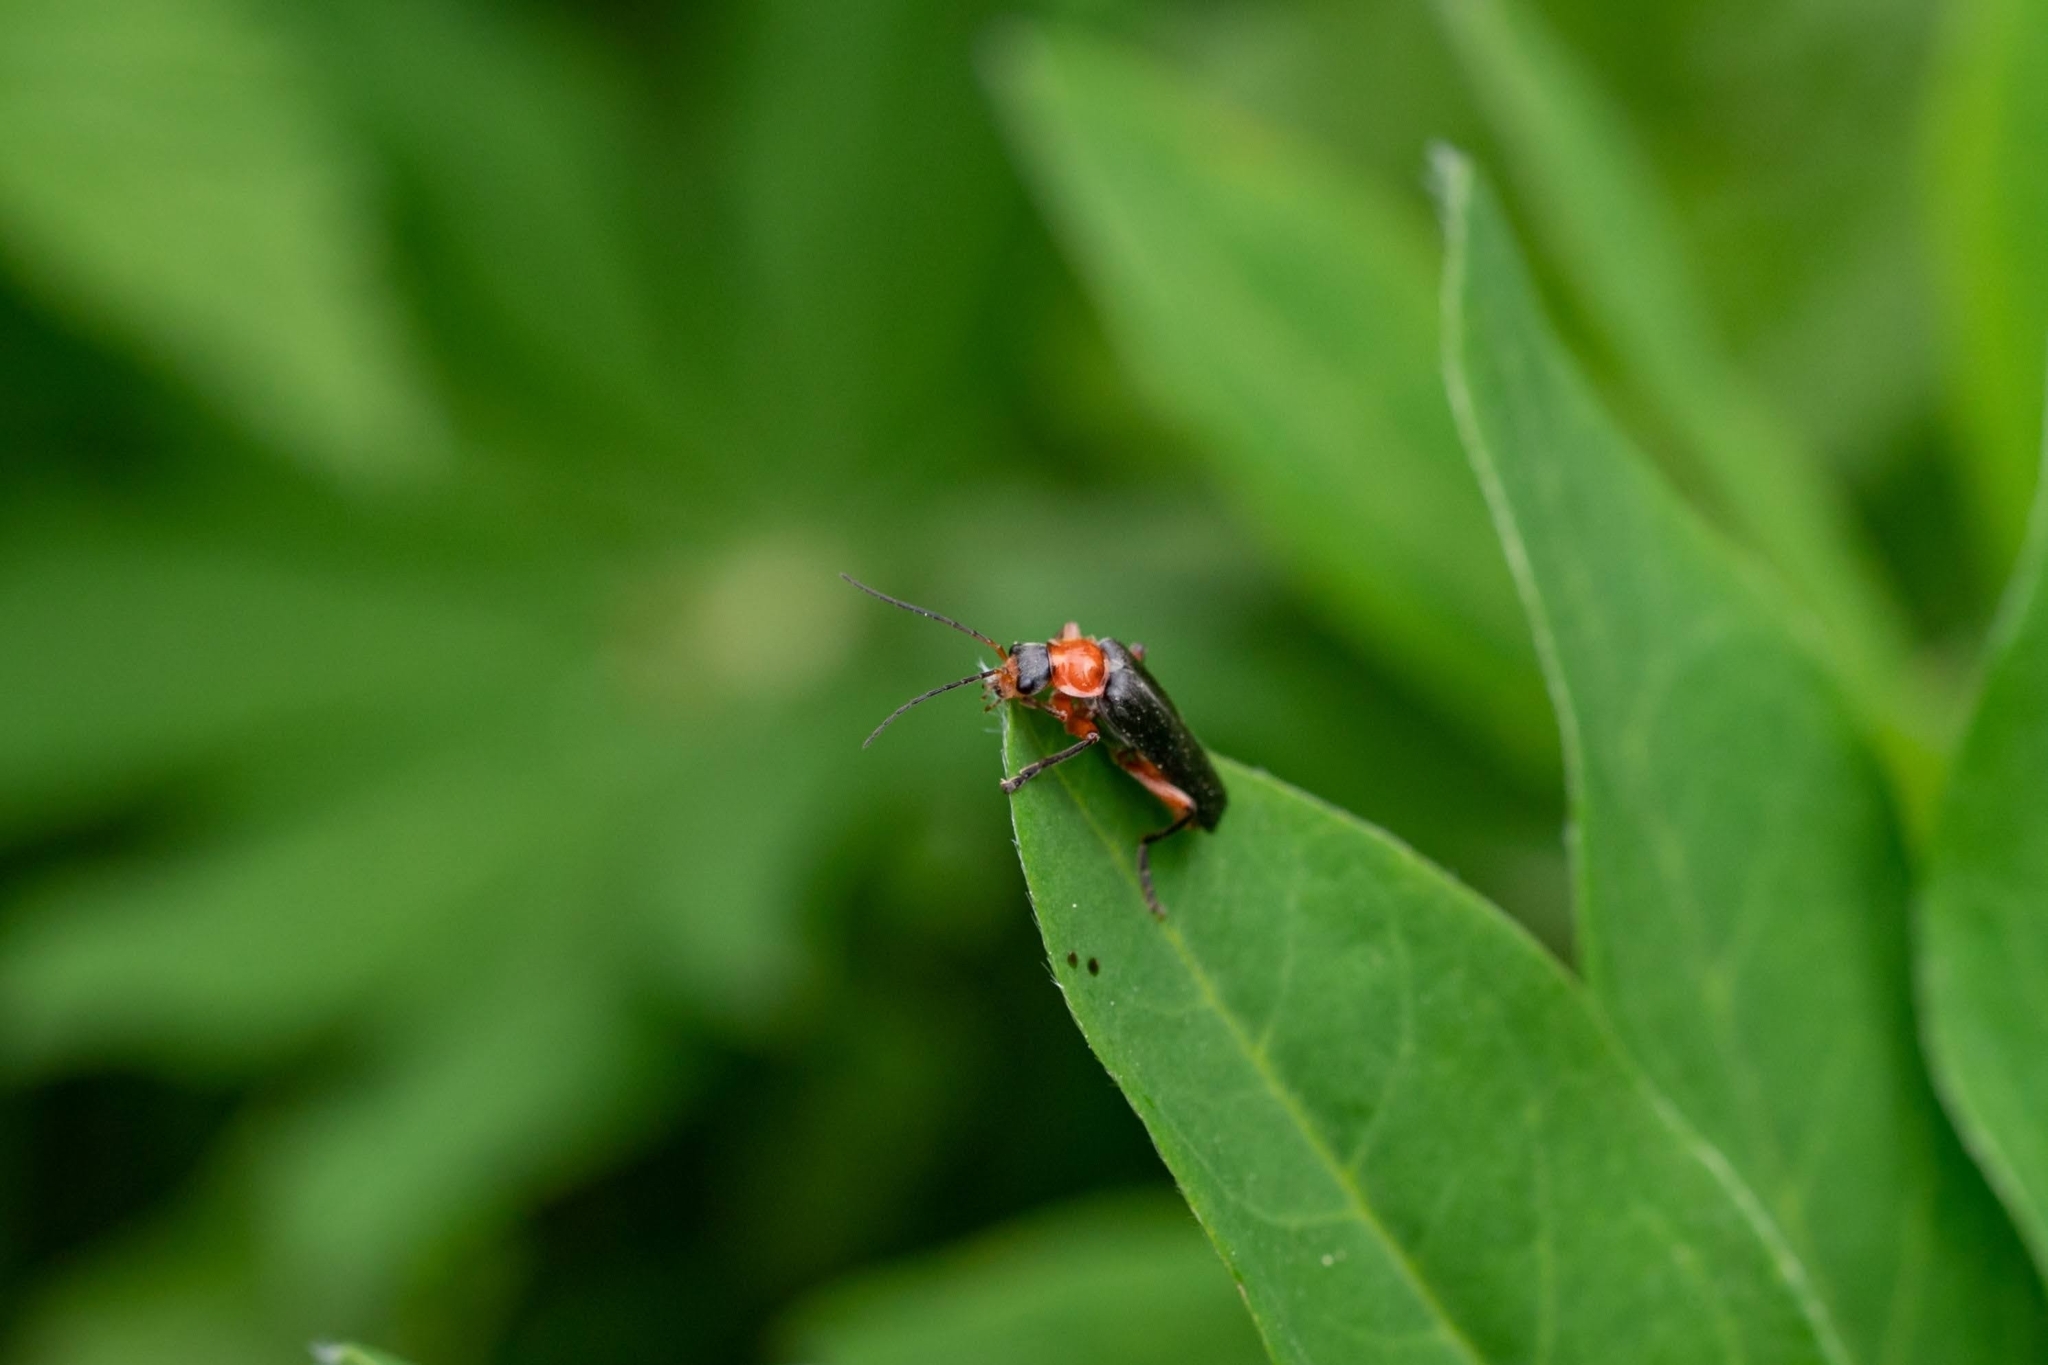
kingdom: Animalia
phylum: Arthropoda
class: Insecta
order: Coleoptera
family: Cantharidae
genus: Cantharis
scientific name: Cantharis pellucida
